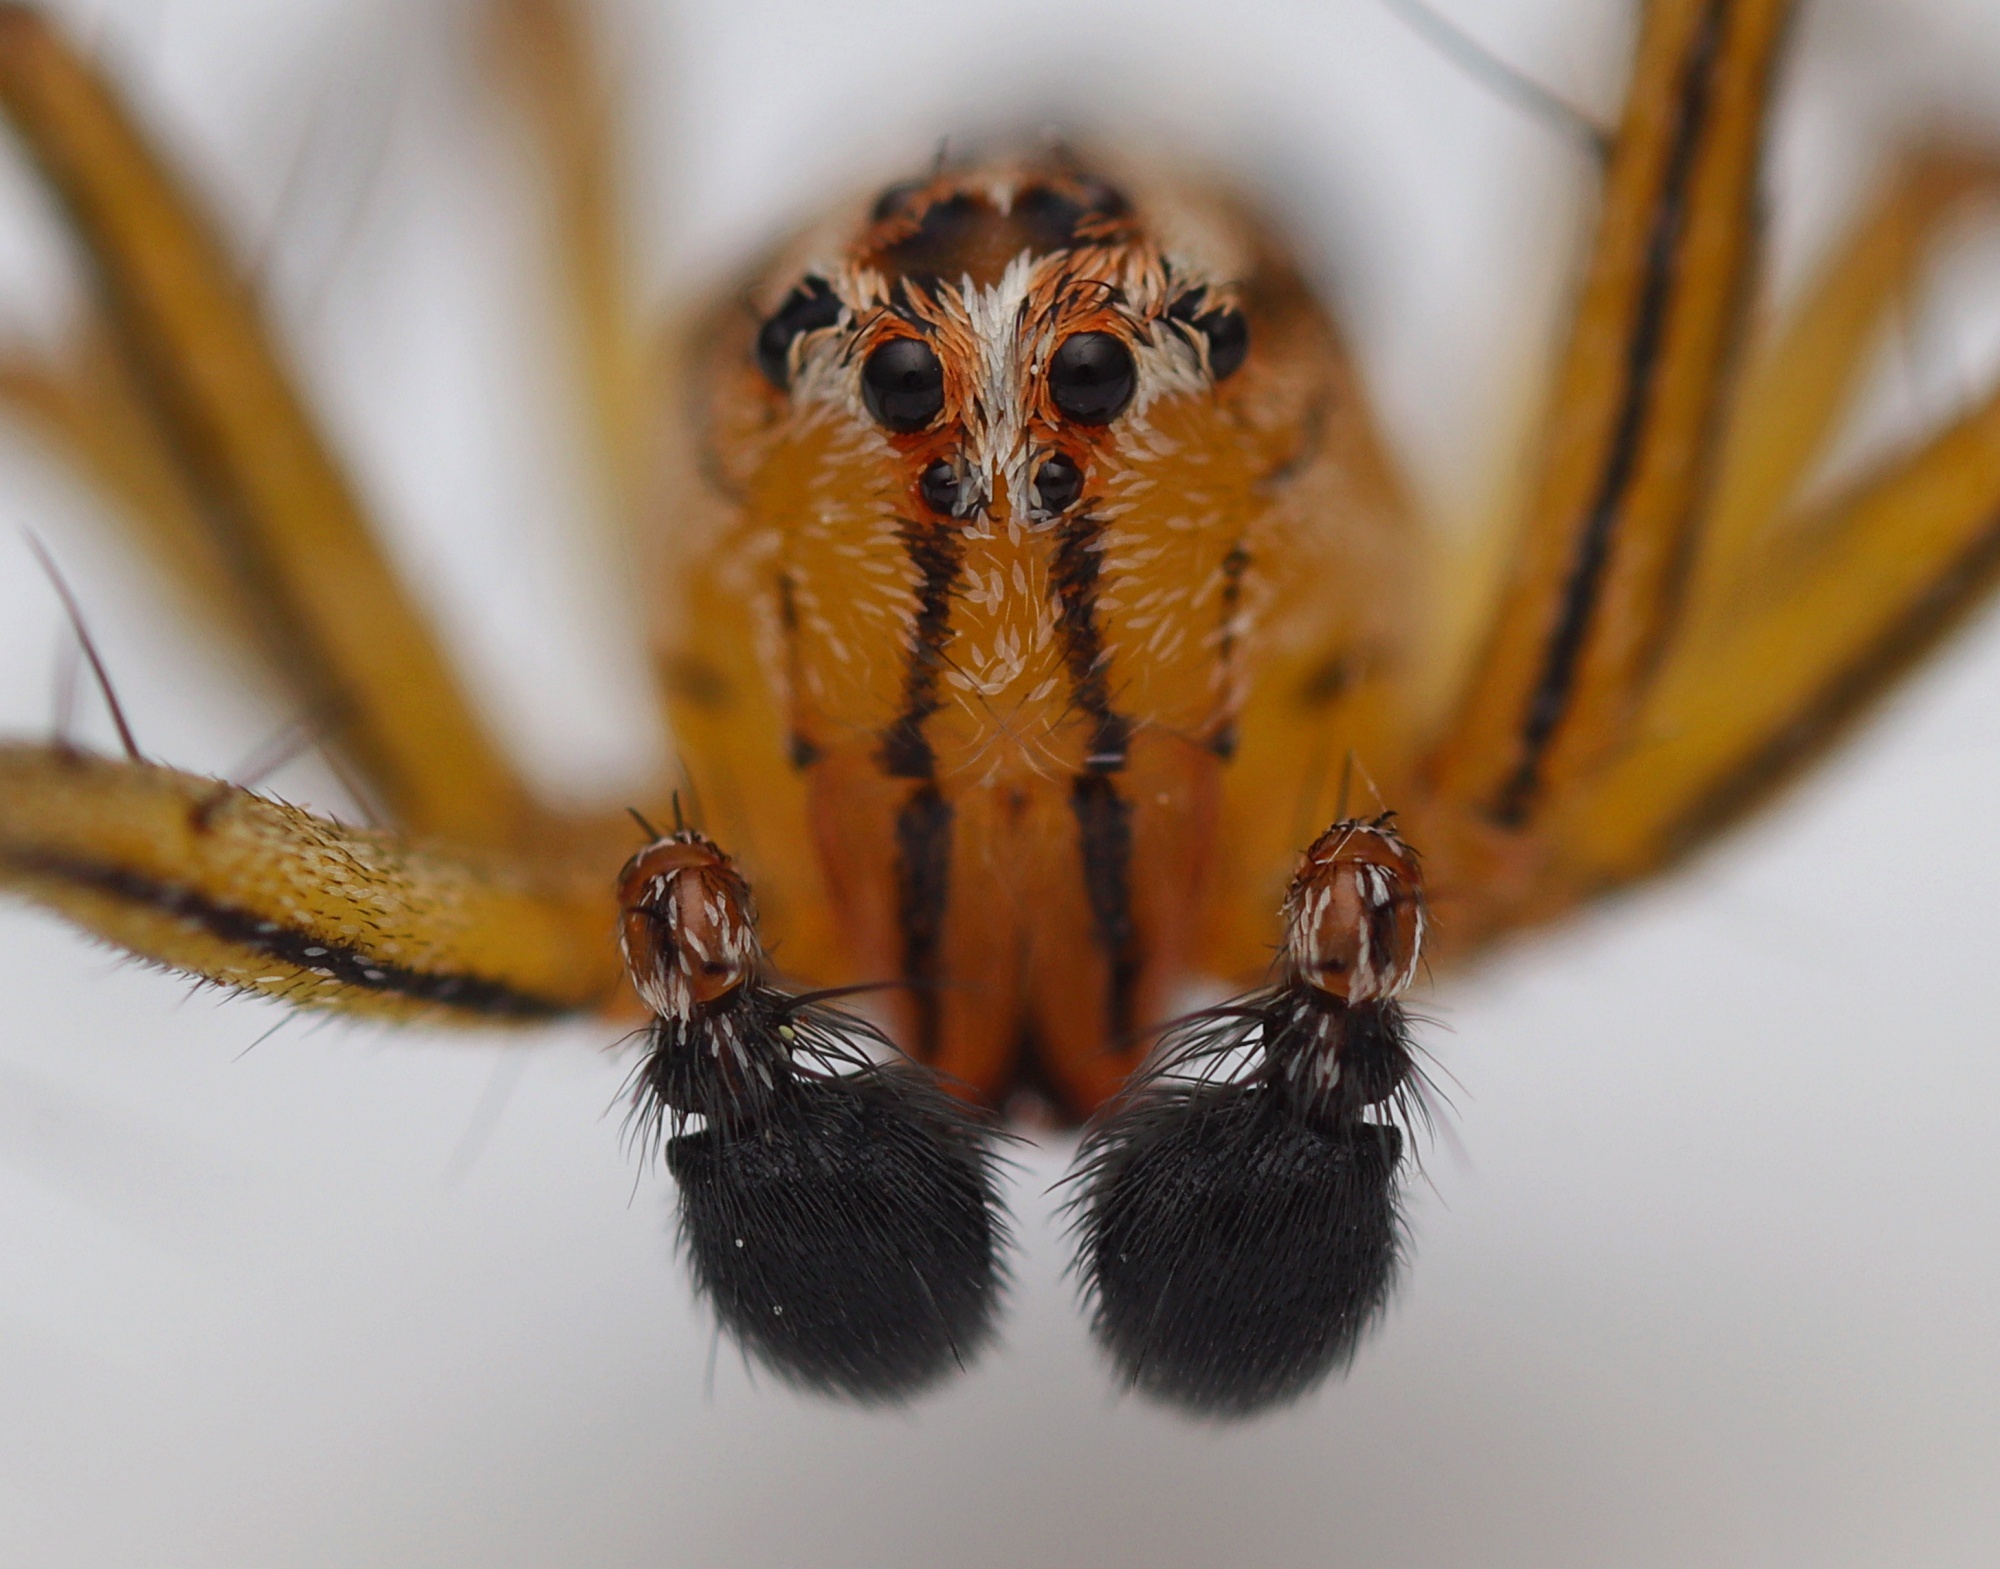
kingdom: Animalia
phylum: Arthropoda
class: Arachnida
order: Araneae
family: Oxyopidae
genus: Oxyopes
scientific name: Oxyopes gracilipes
